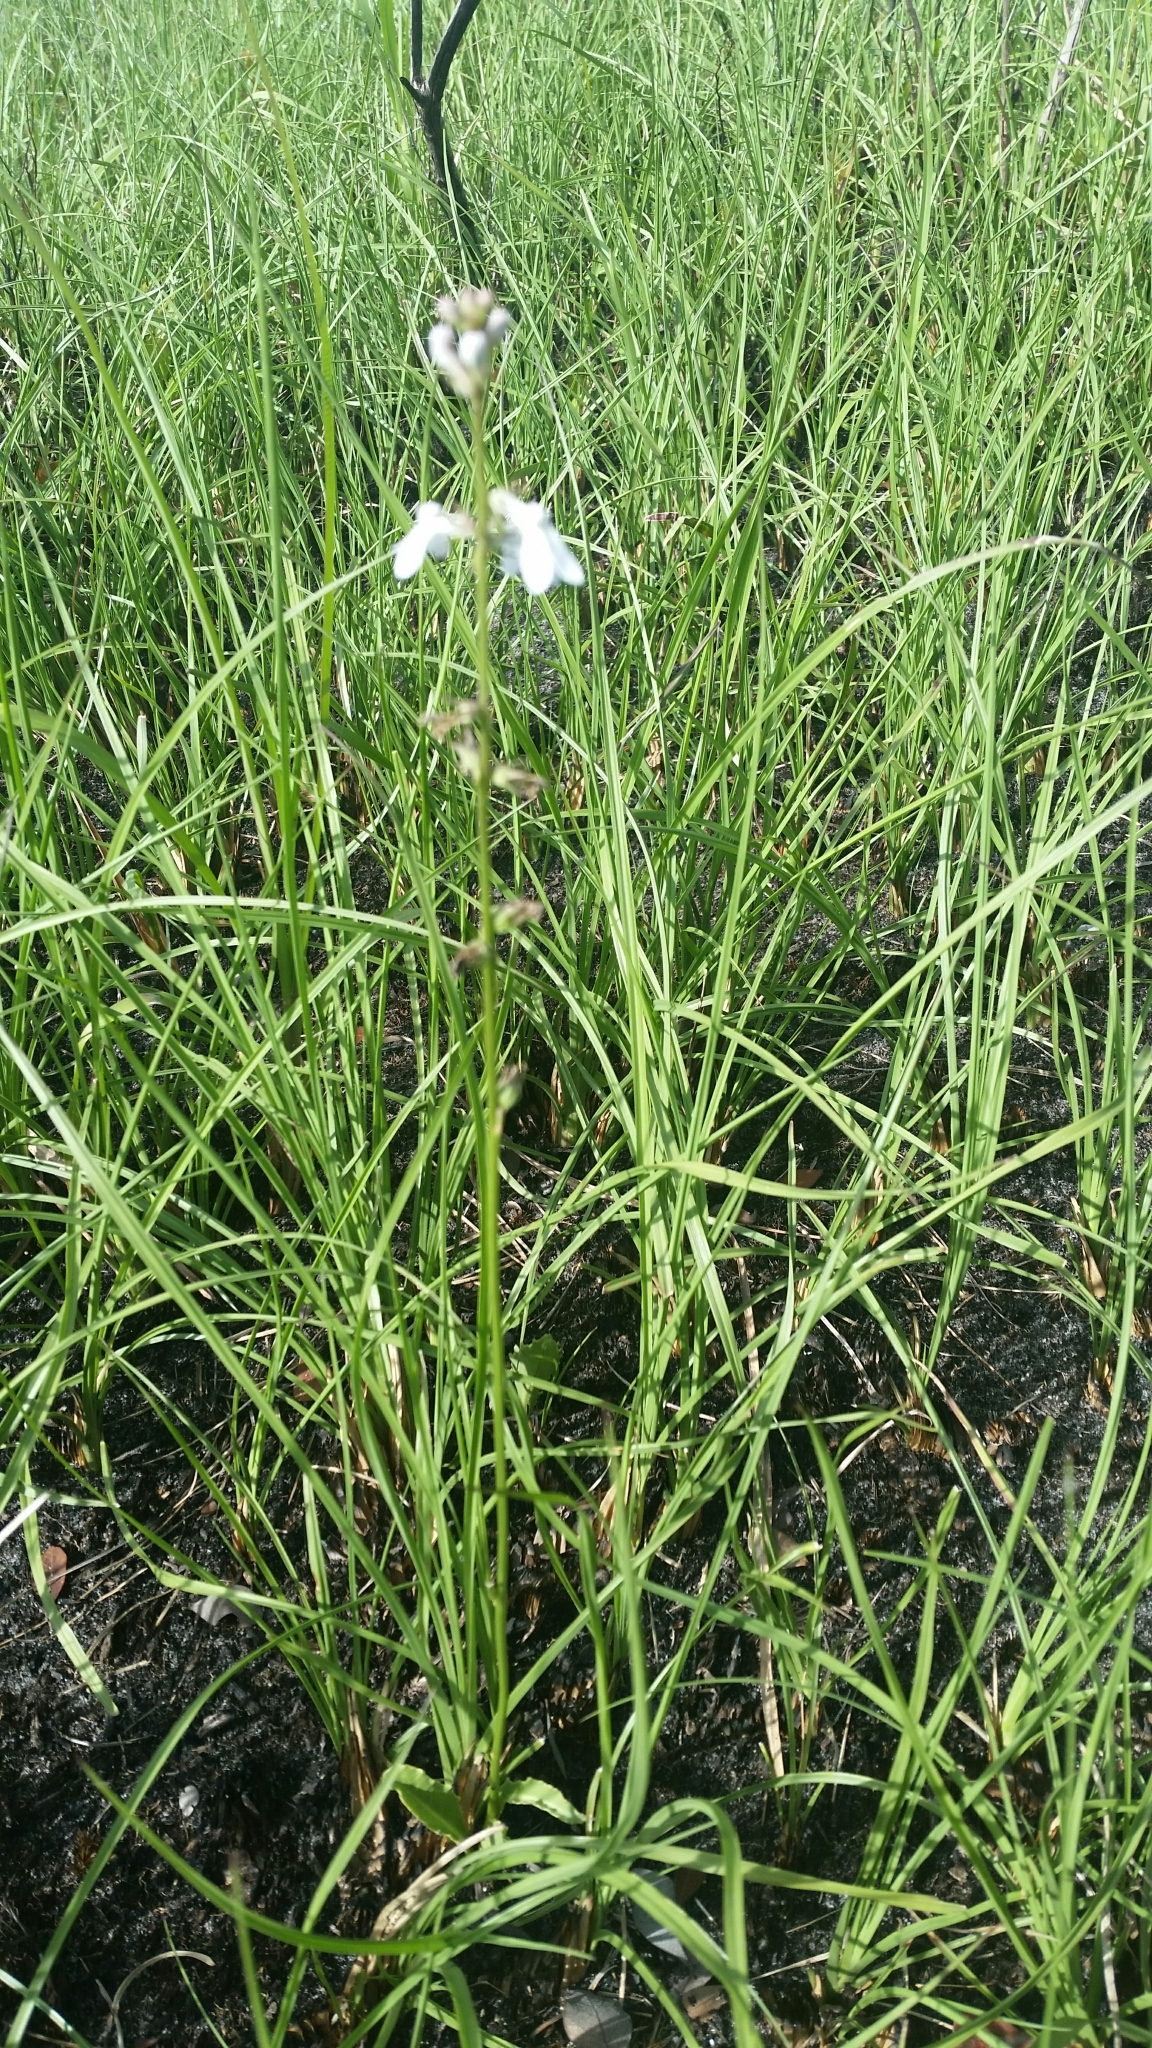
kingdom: Plantae
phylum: Tracheophyta
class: Magnoliopsida
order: Asterales
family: Campanulaceae
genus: Lobelia
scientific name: Lobelia paludosa
